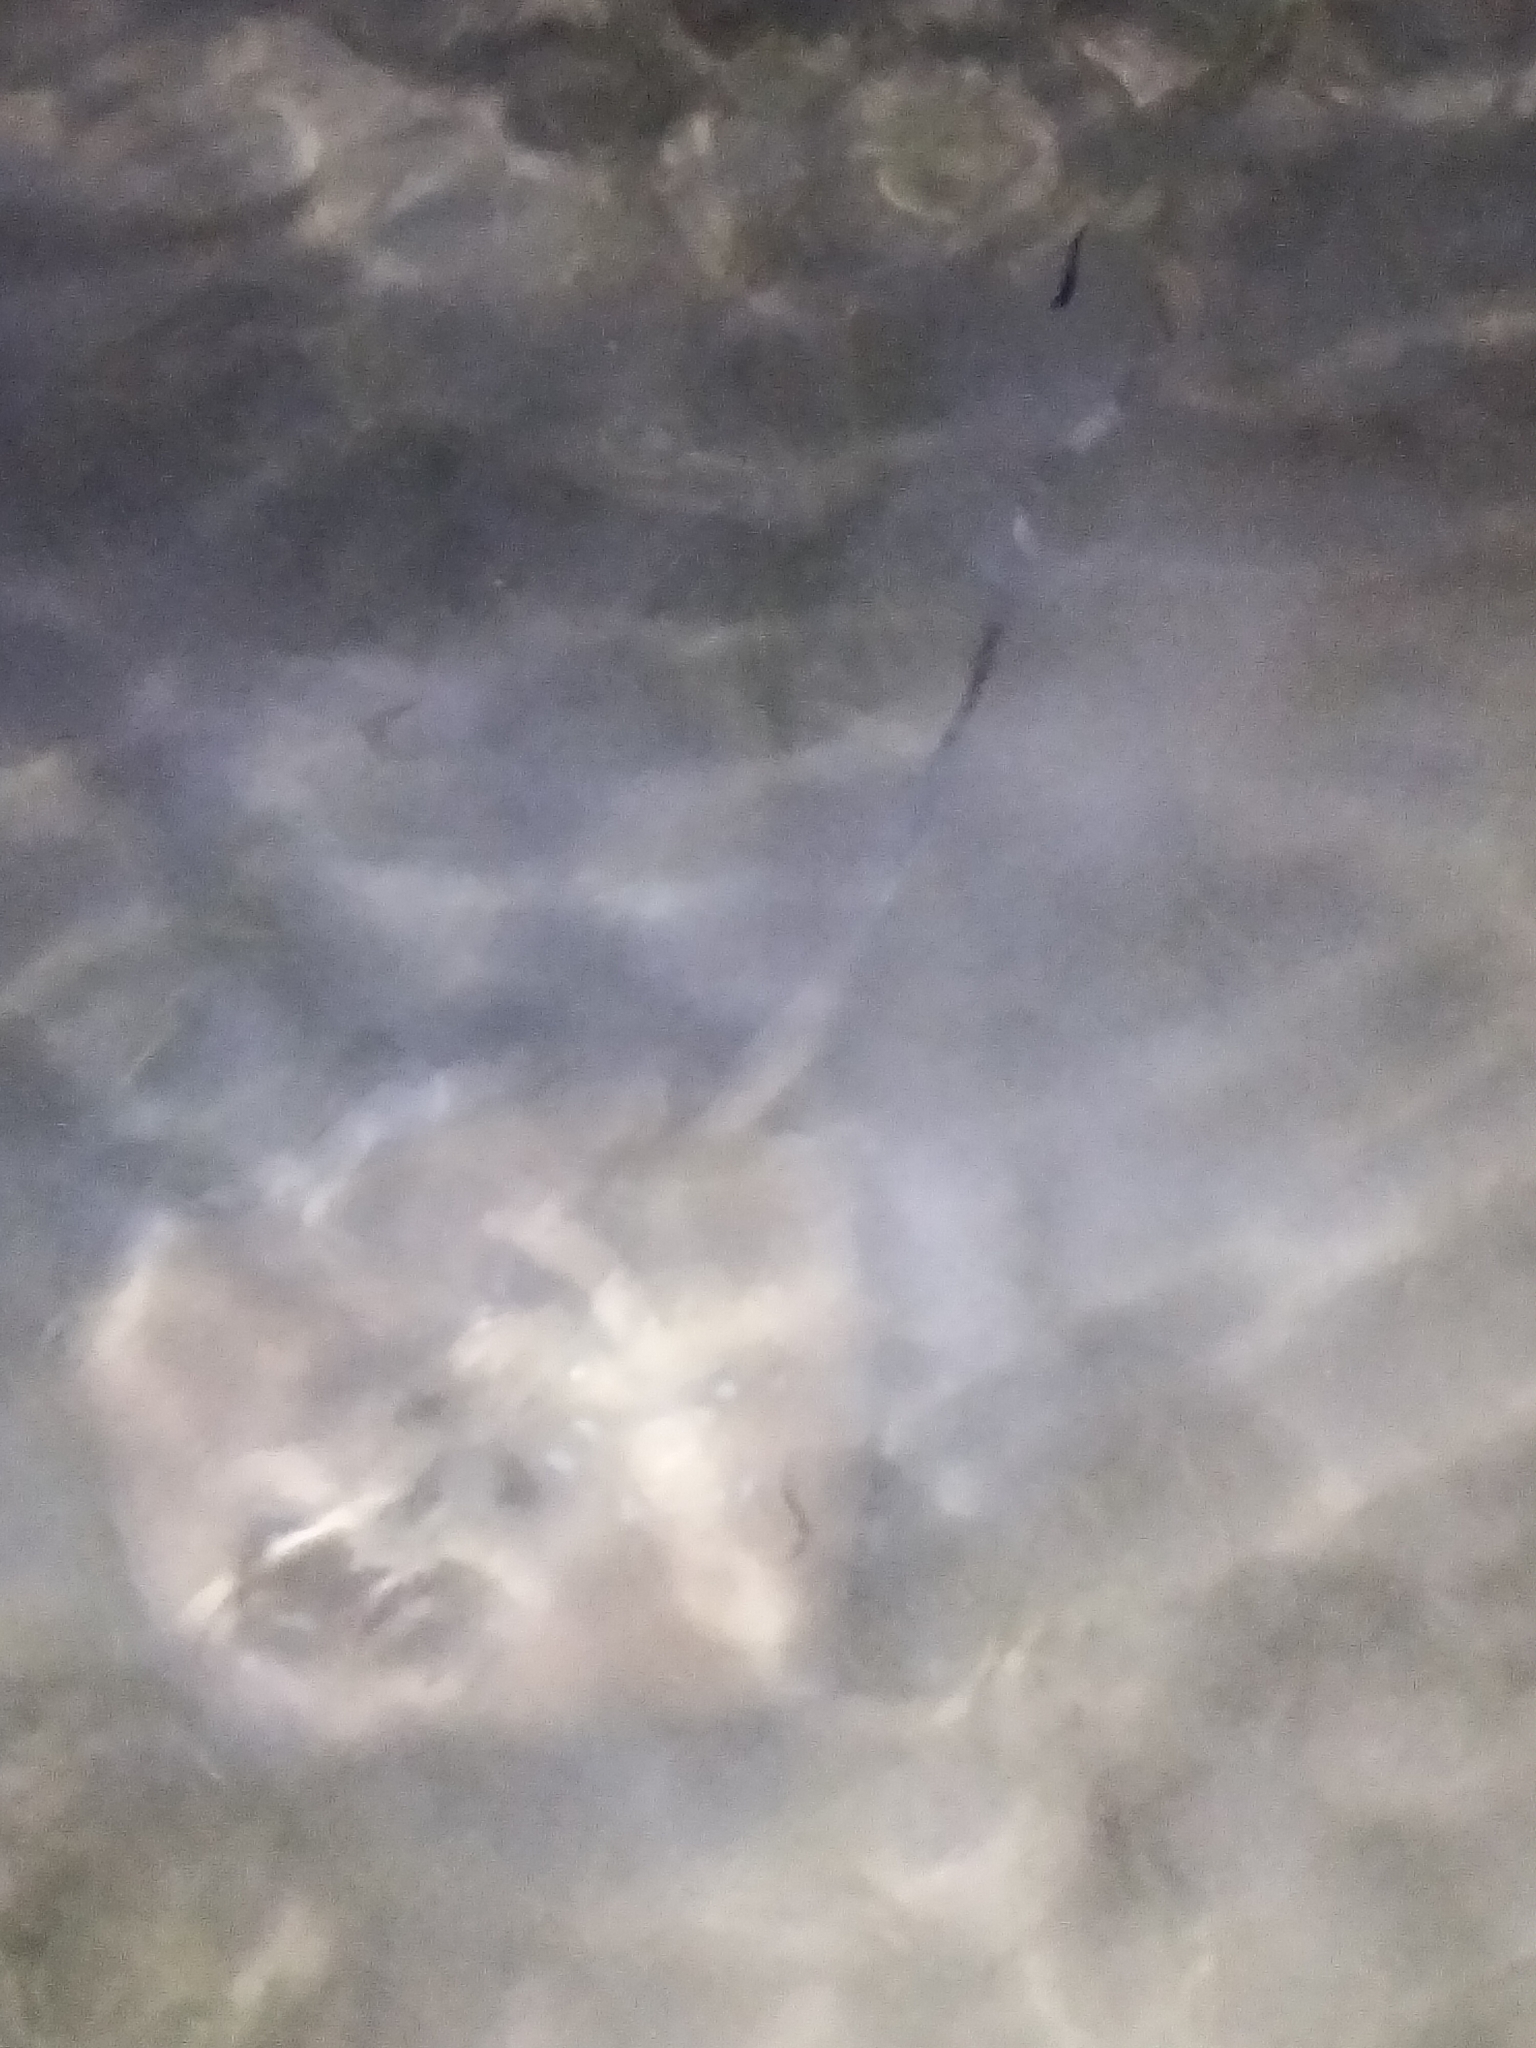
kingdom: Animalia
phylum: Chordata
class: Elasmobranchii
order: Myliobatiformes
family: Dasyatidae
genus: Neotrygon
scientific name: Neotrygon kuhlii
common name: Bluespotted stingray
